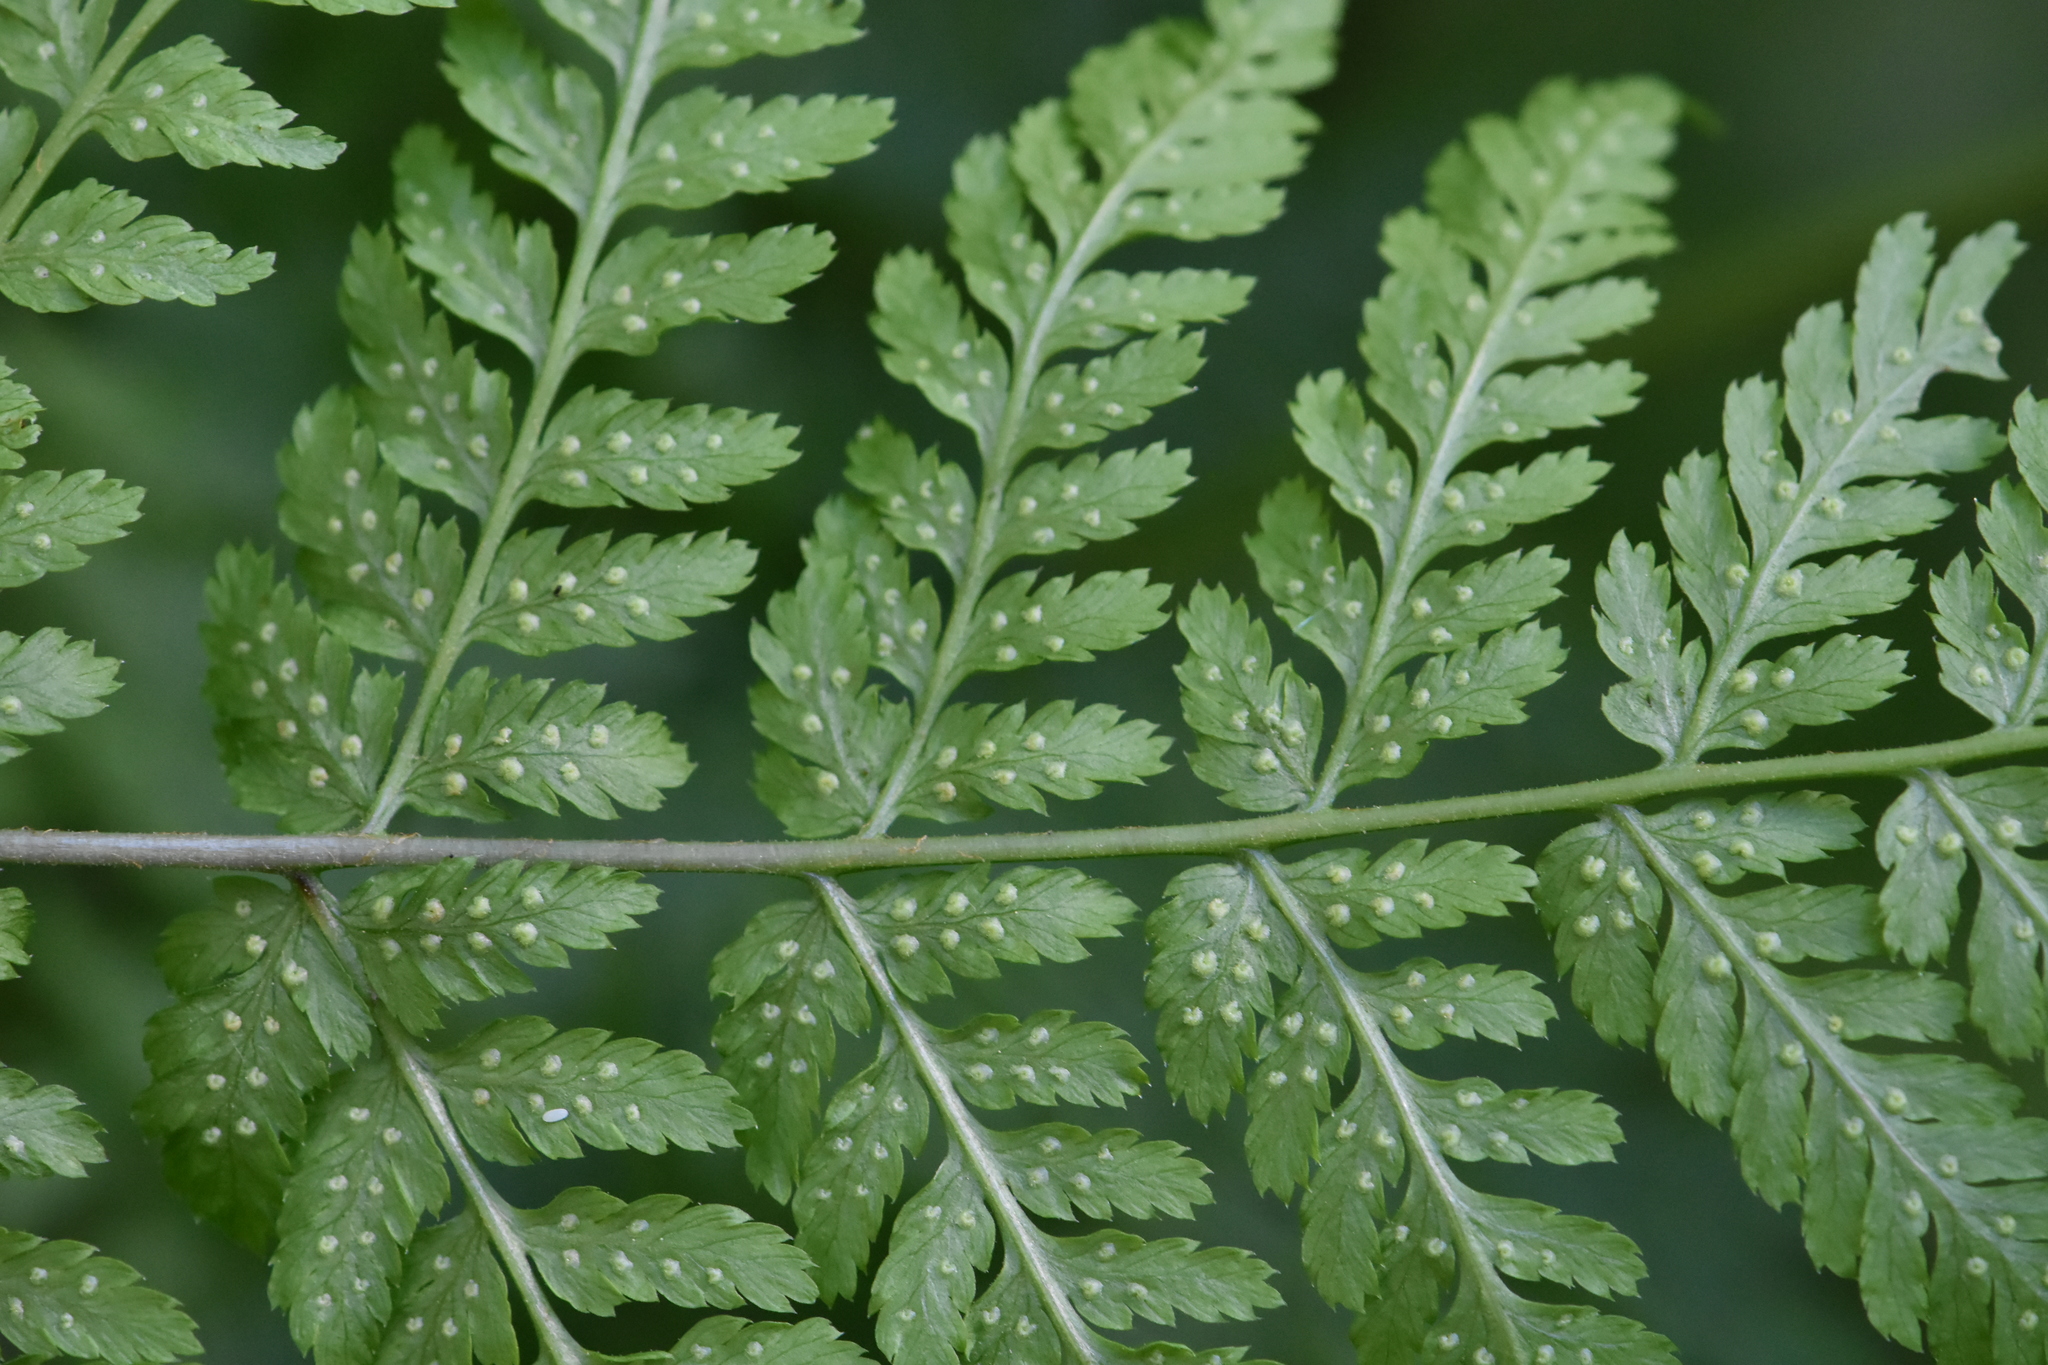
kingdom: Plantae
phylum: Tracheophyta
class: Polypodiopsida
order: Polypodiales
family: Dryopteridaceae
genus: Dryopteris
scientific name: Dryopteris expansa
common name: Northern buckler fern
